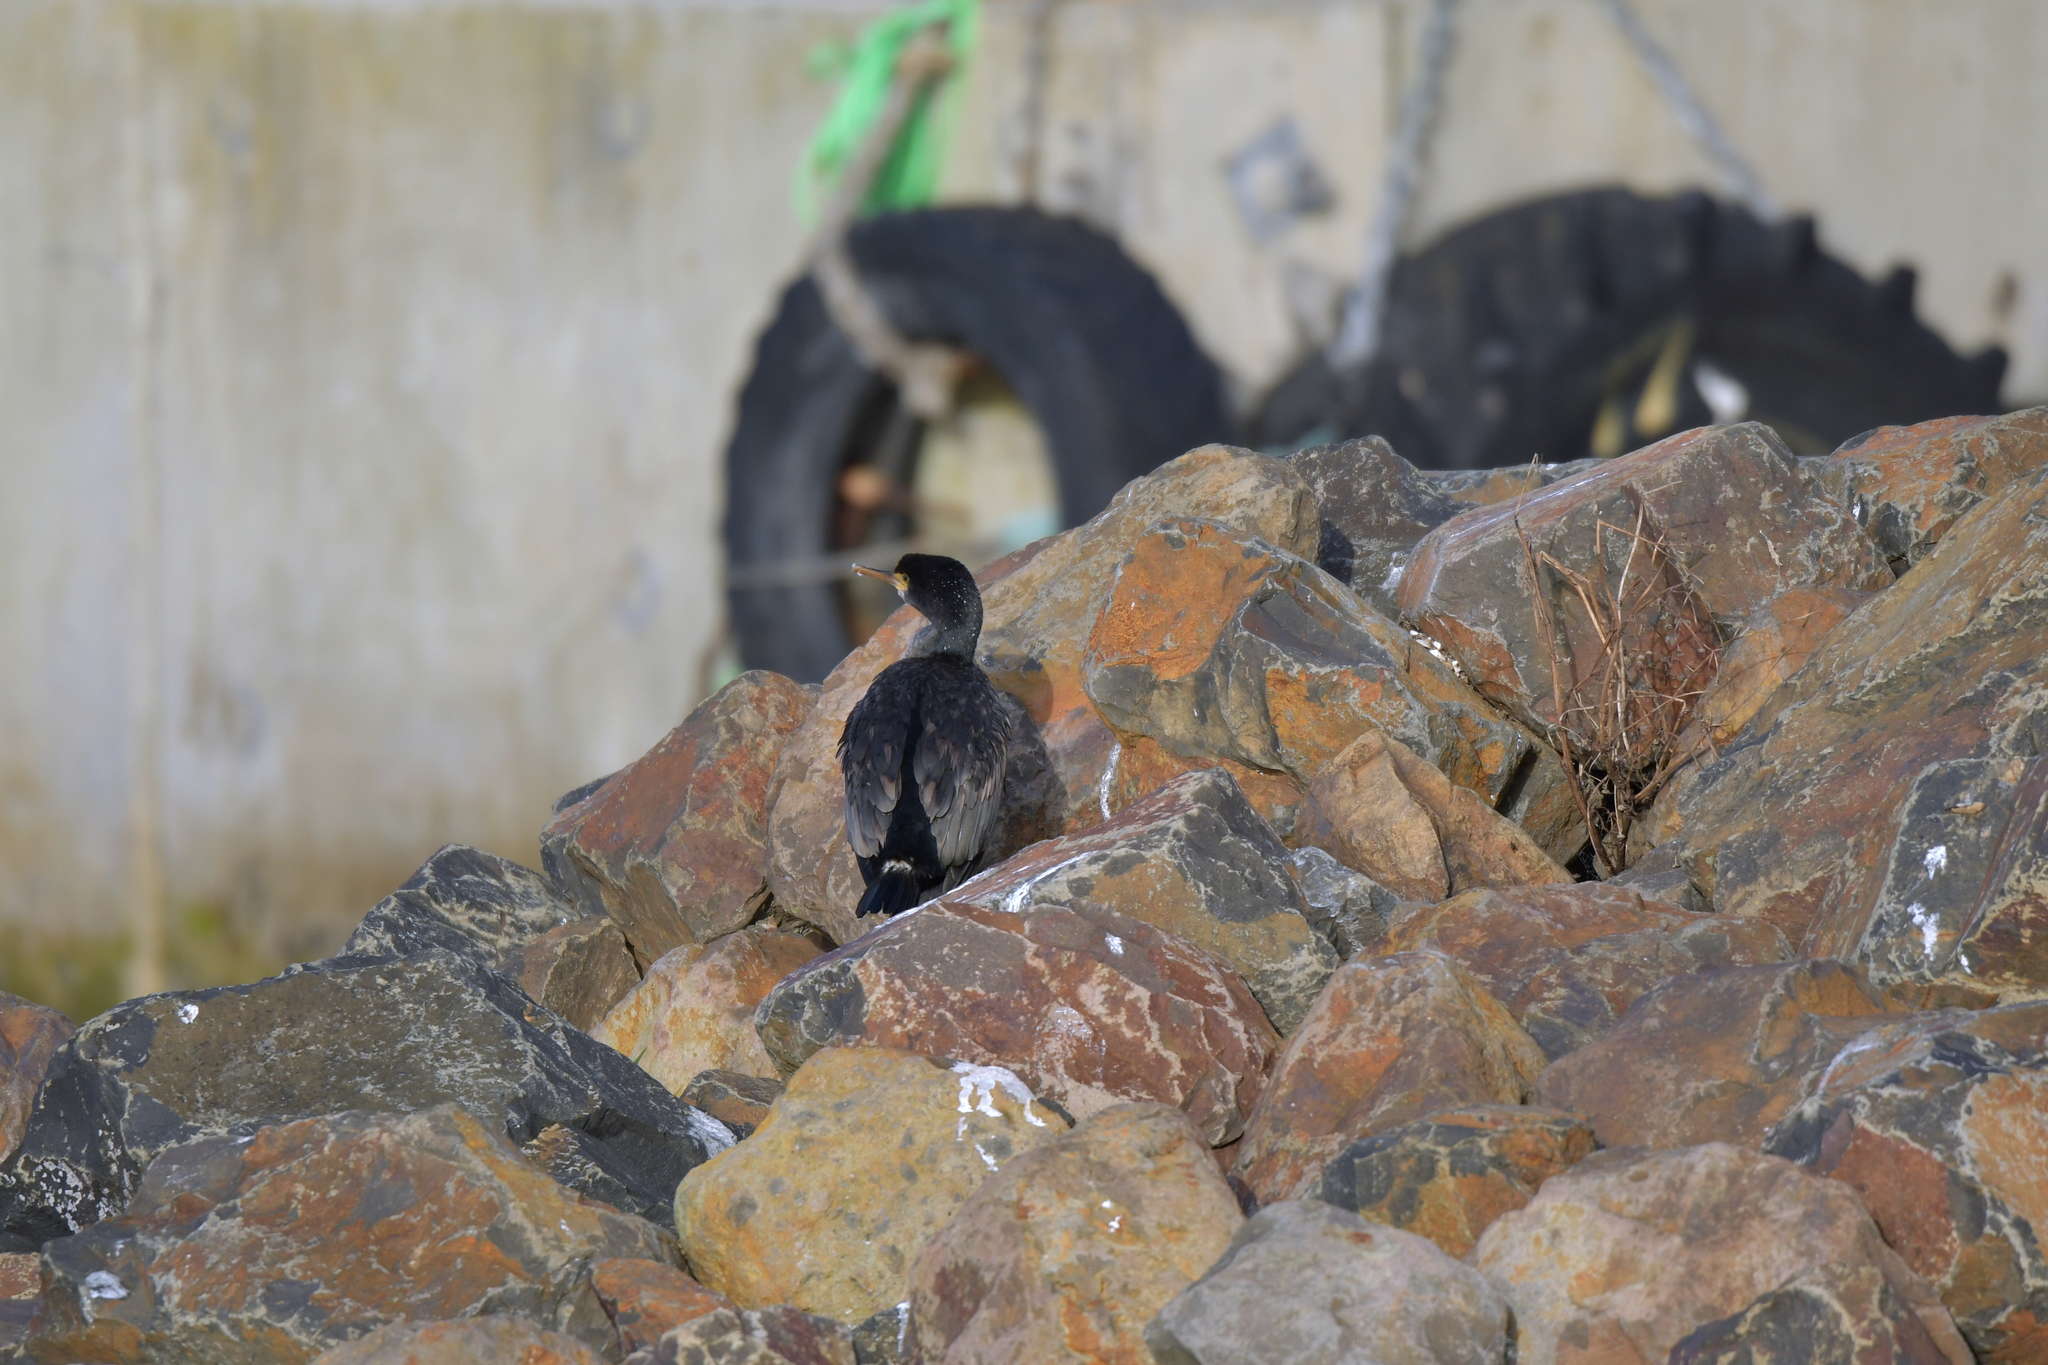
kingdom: Animalia
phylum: Chordata
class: Aves
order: Suliformes
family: Phalacrocoracidae
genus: Phalacrocorax
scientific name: Phalacrocorax featherstoni
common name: Pitt shag
